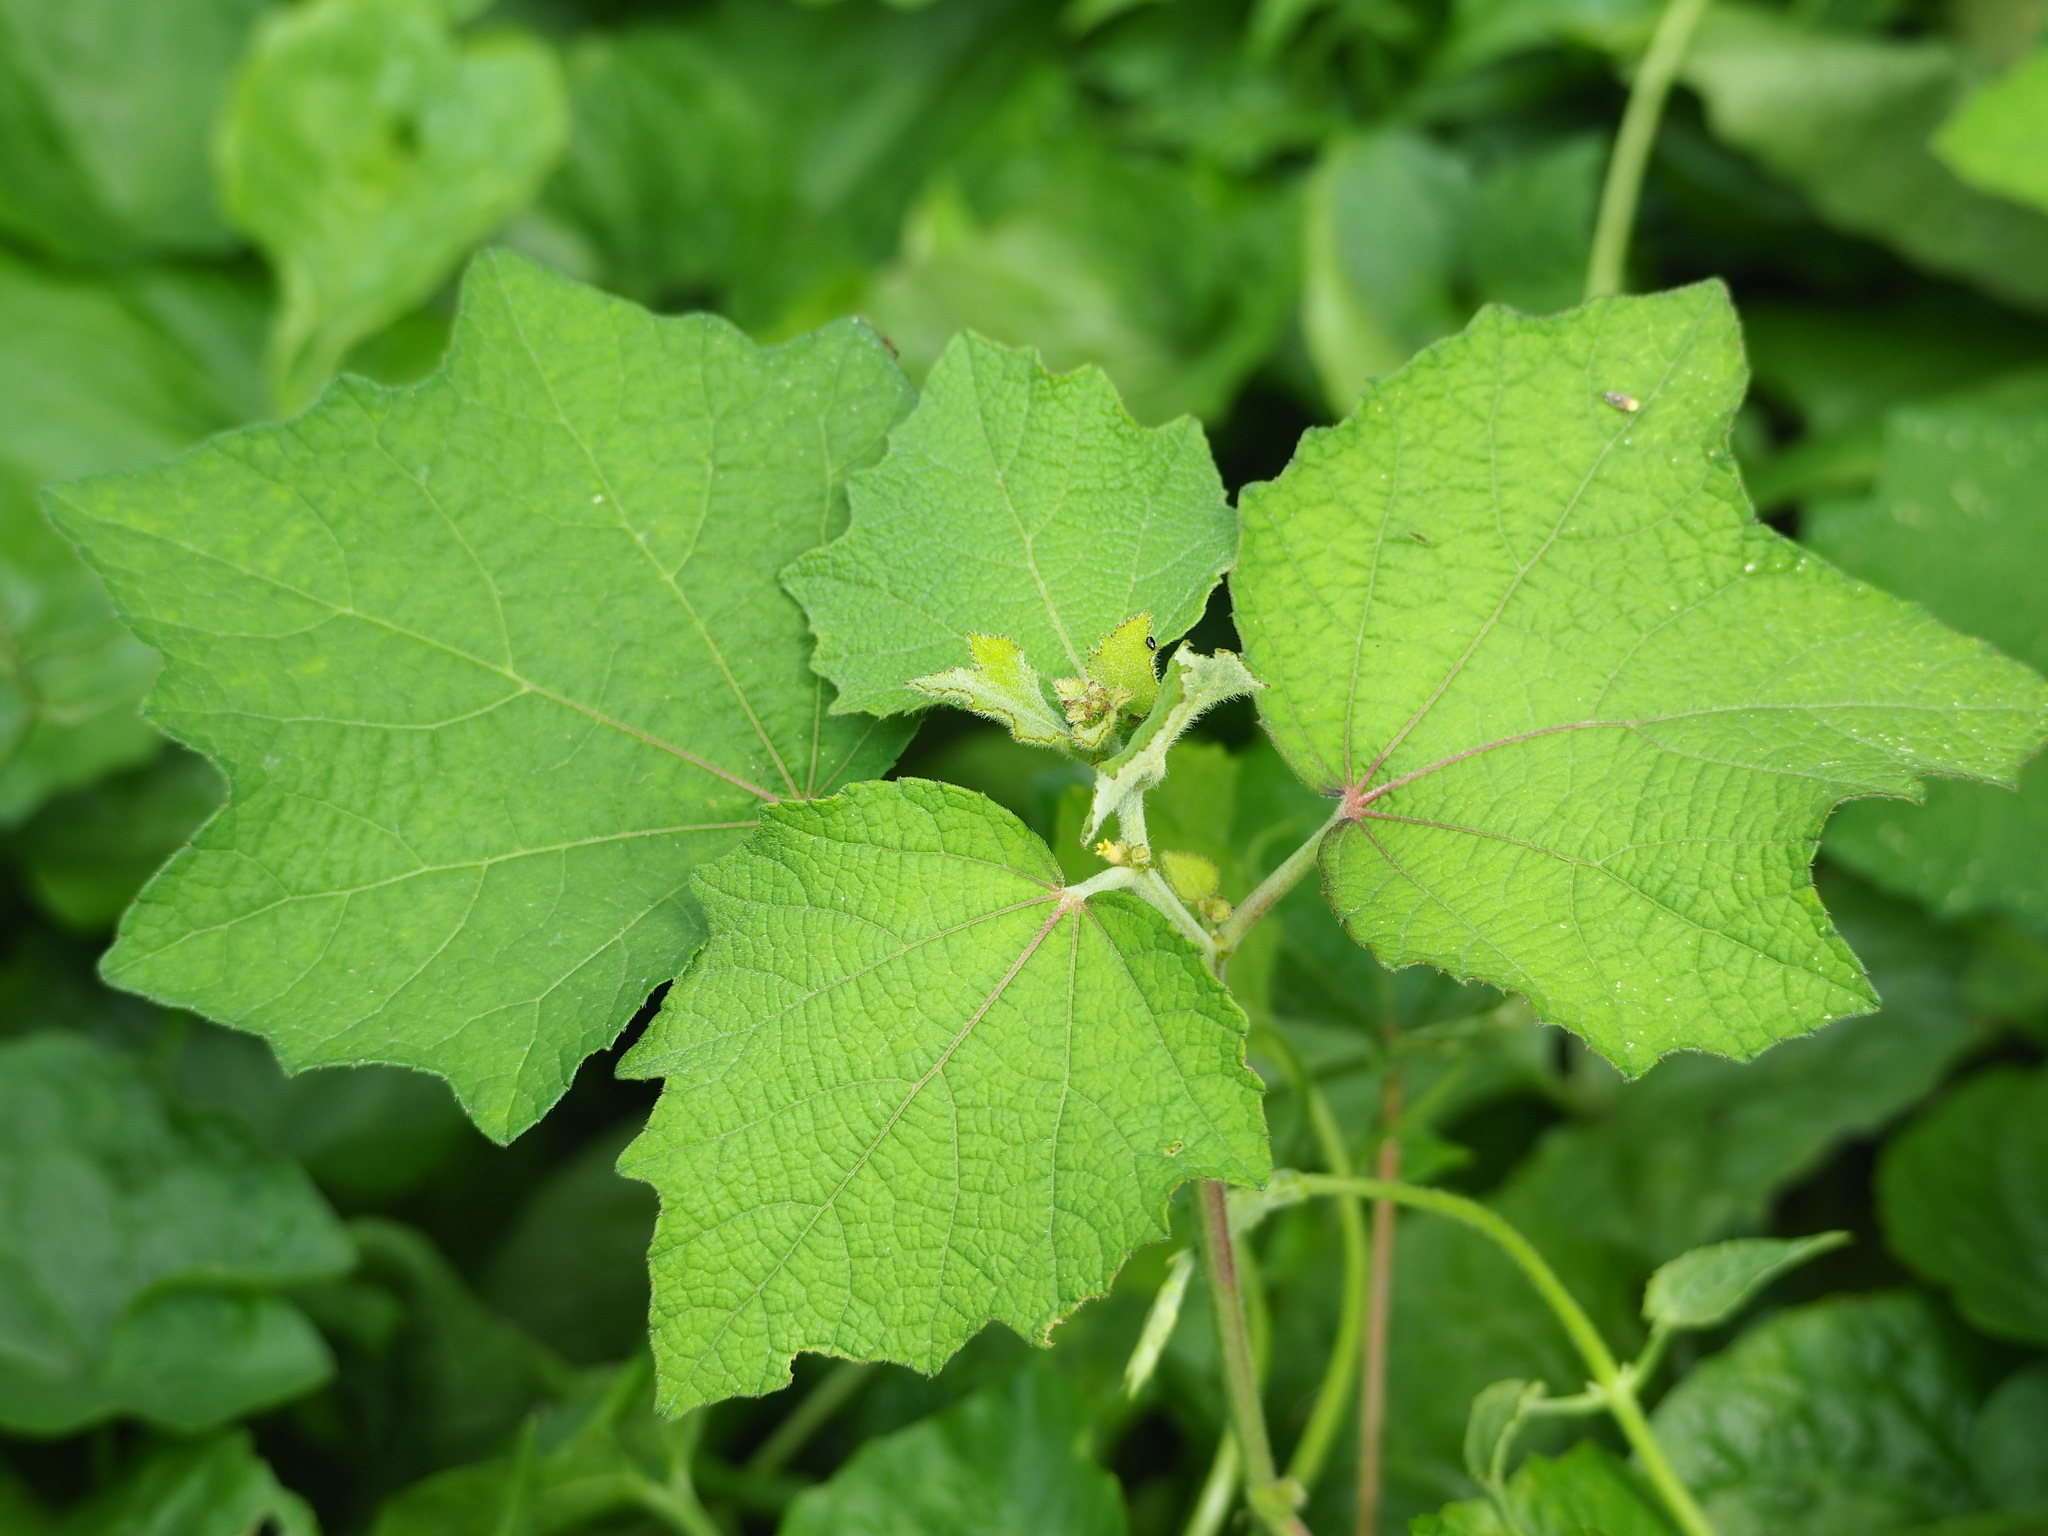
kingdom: Plantae
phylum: Tracheophyta
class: Magnoliopsida
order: Malvales
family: Malvaceae
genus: Urena
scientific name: Urena lobata
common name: Caesarweed
